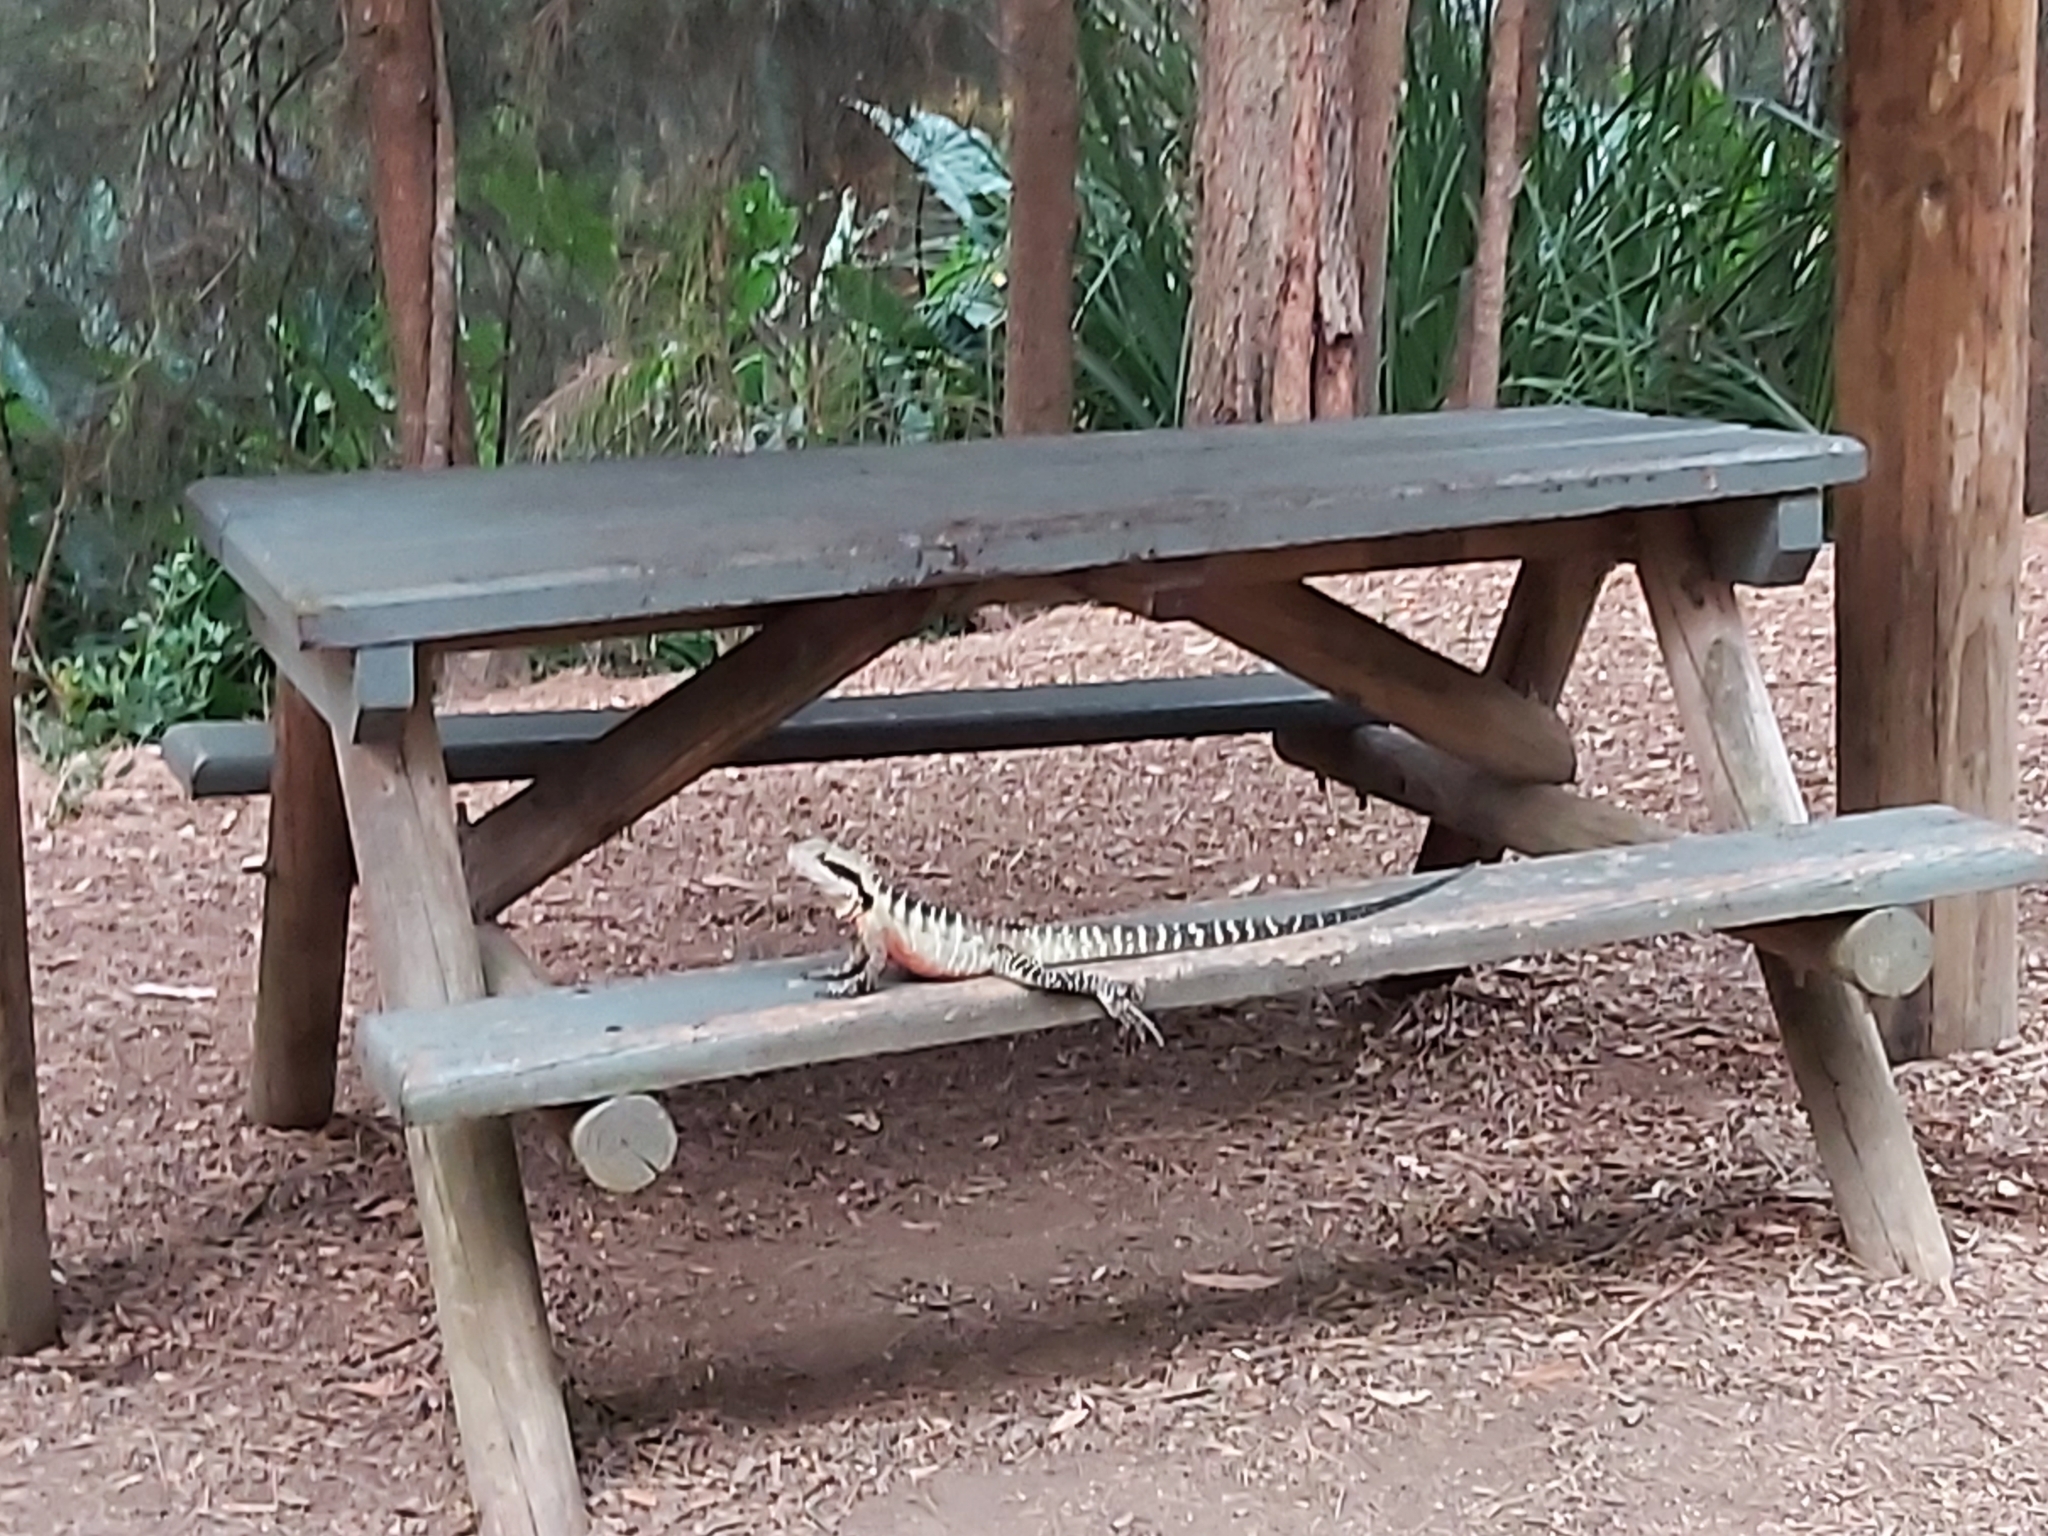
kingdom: Animalia
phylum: Chordata
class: Squamata
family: Agamidae
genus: Intellagama
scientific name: Intellagama lesueurii
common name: Eastern water dragon
